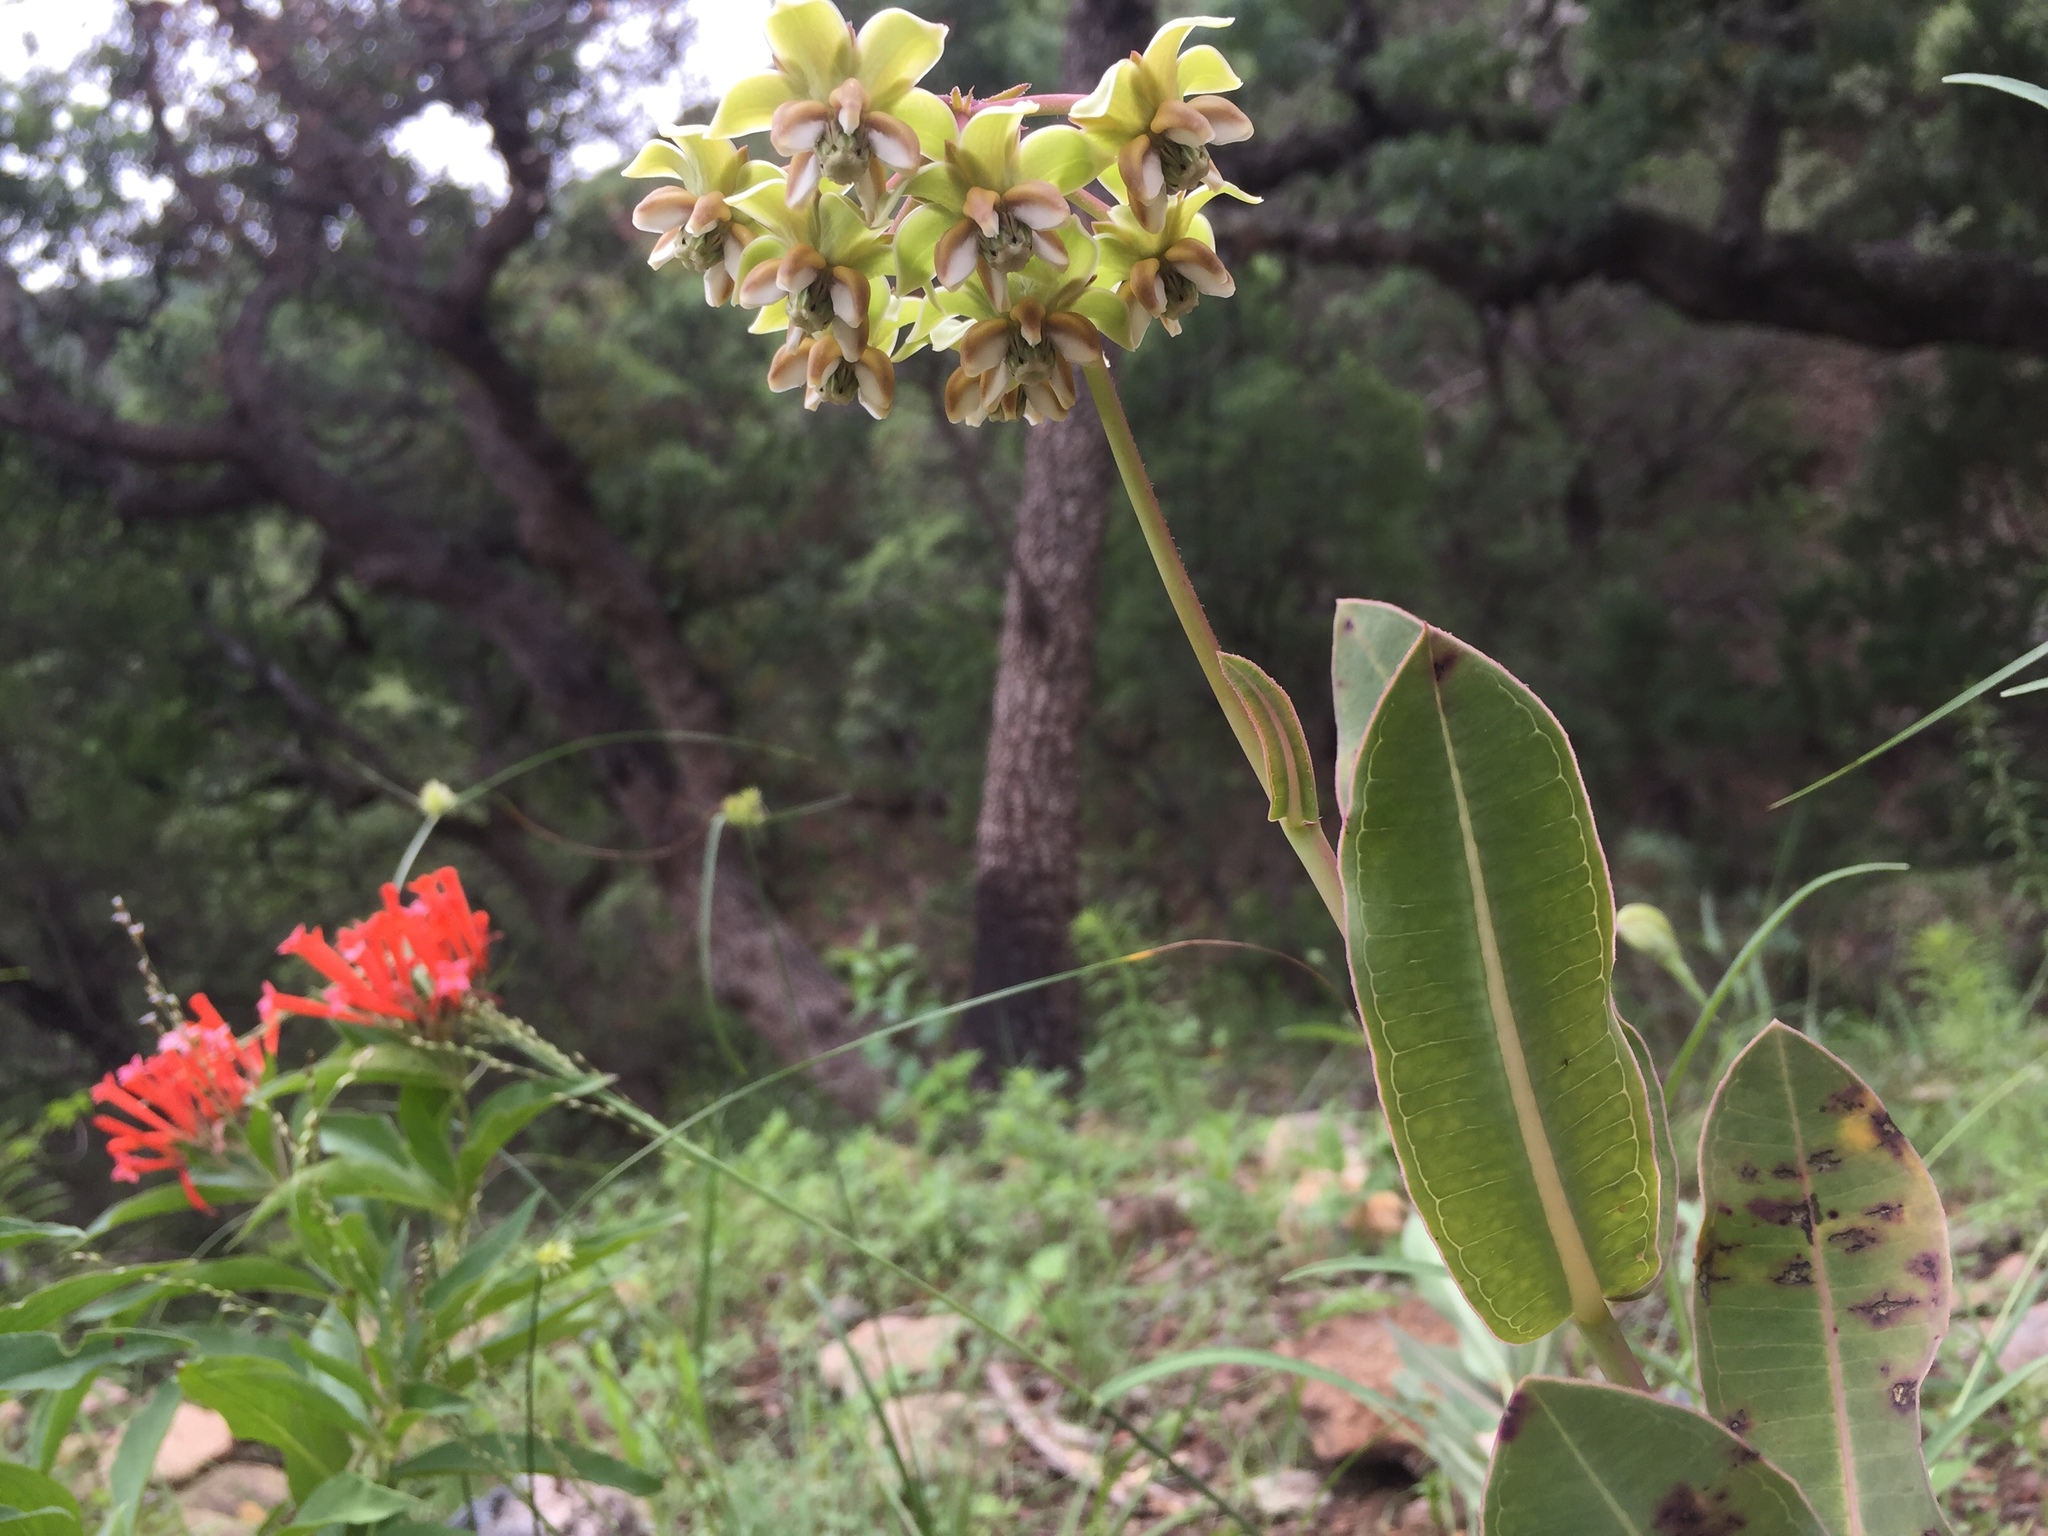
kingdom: Plantae
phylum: Tracheophyta
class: Magnoliopsida
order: Gentianales
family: Apocynaceae
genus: Asclepias
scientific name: Asclepias elata
